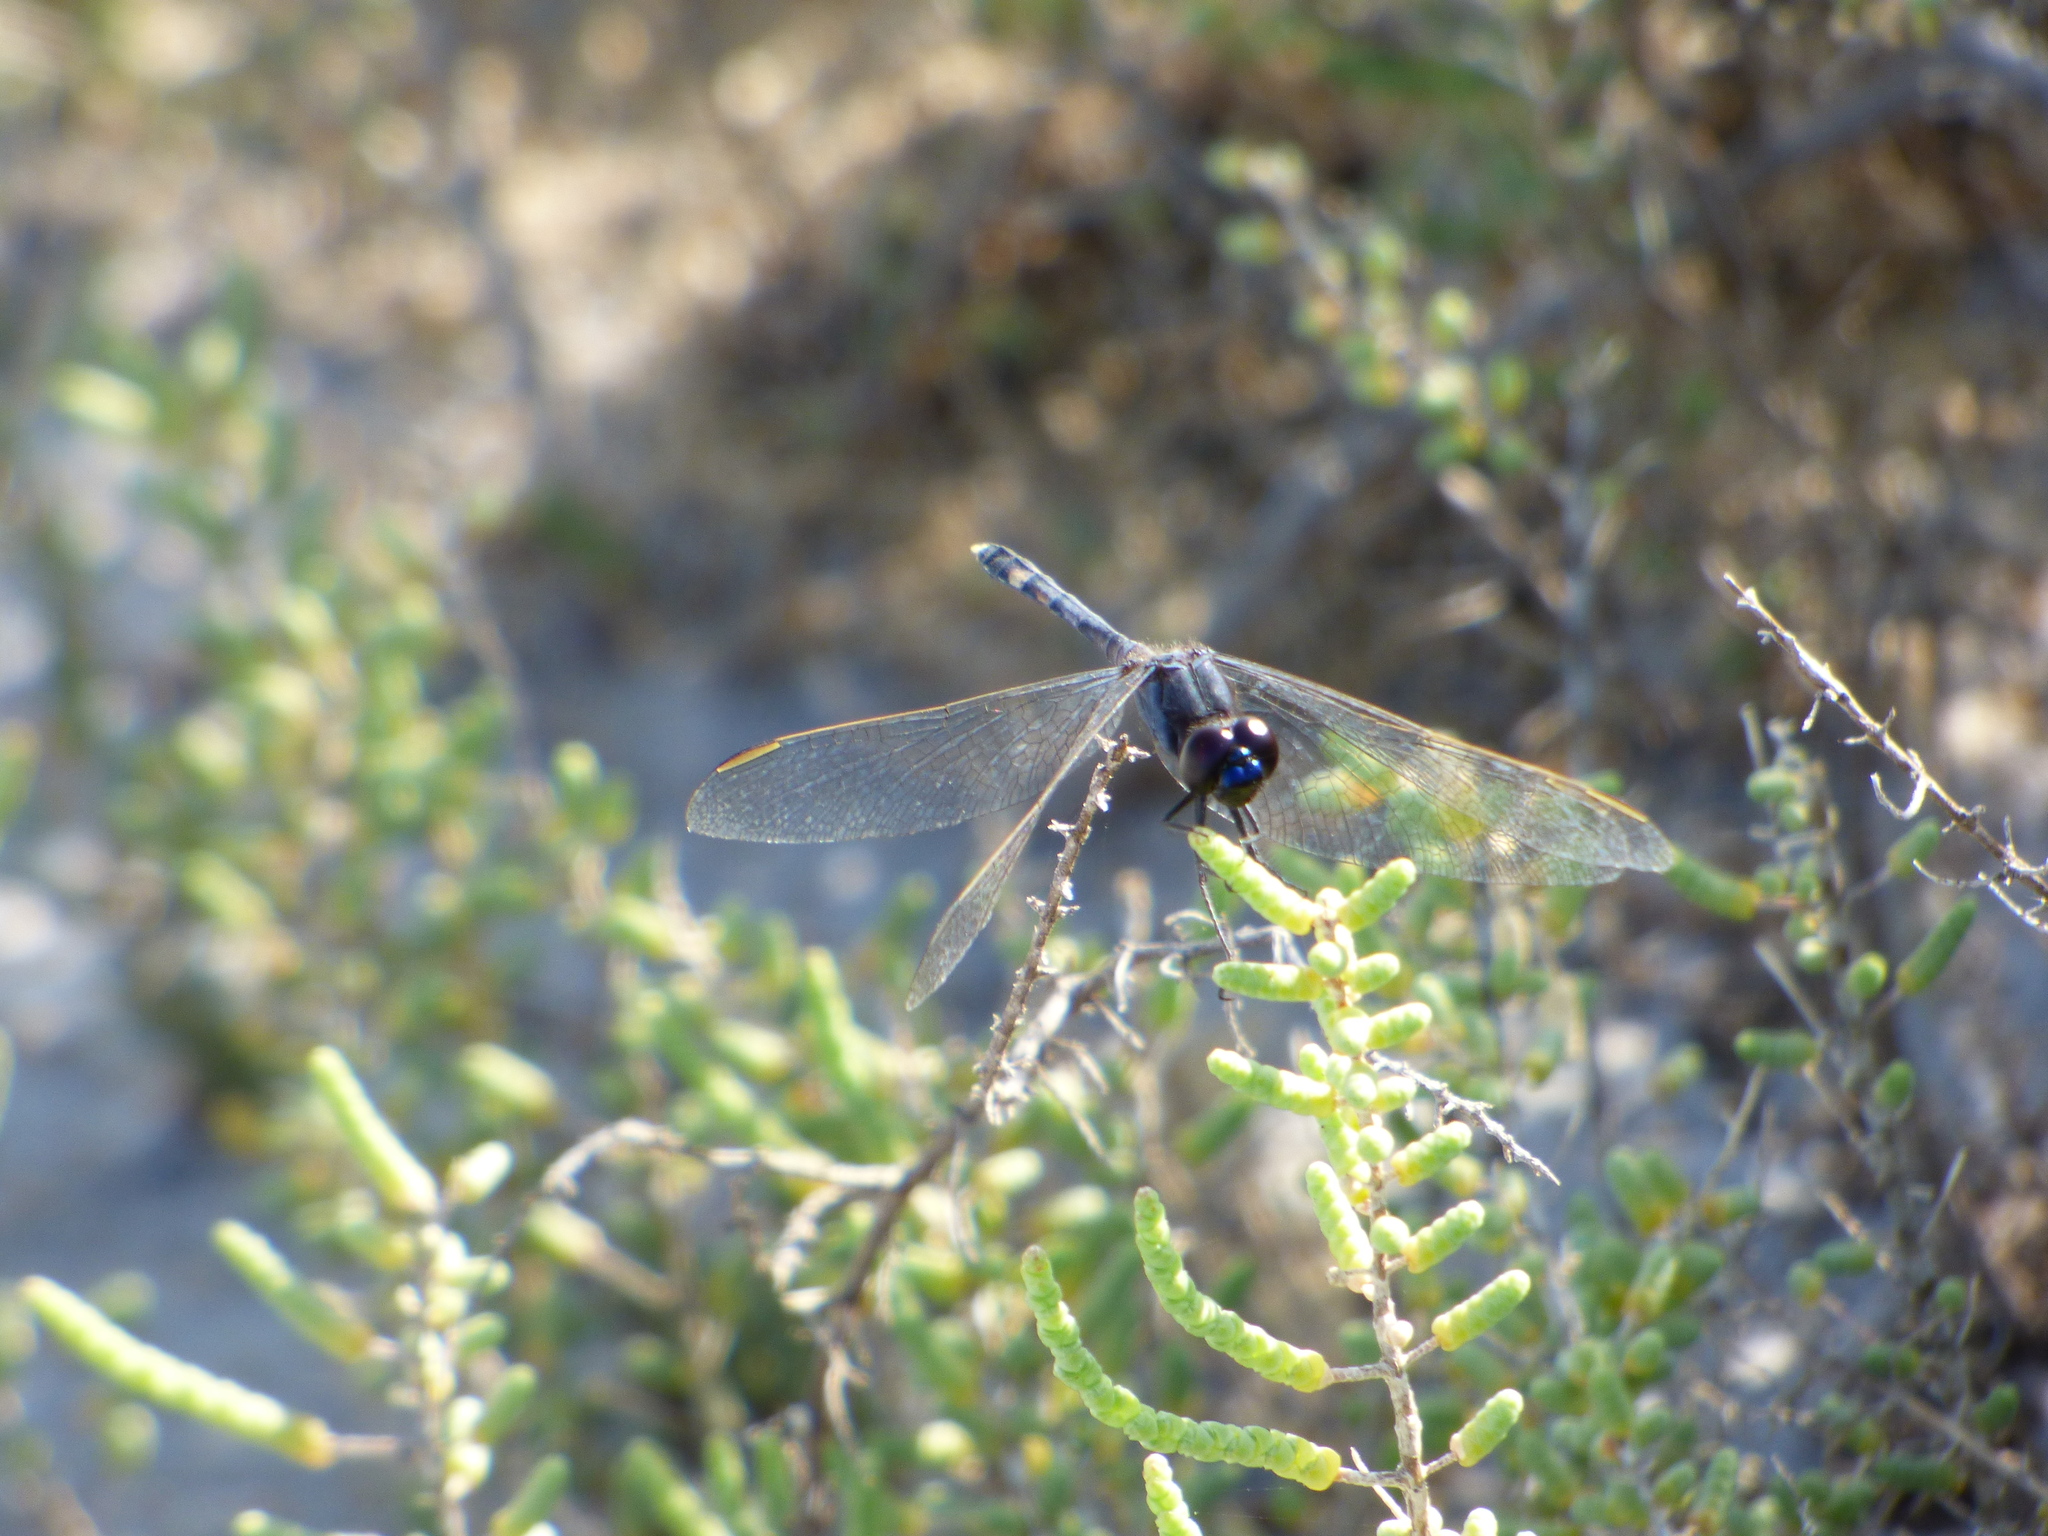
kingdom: Animalia
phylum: Arthropoda
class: Insecta
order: Odonata
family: Libellulidae
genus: Erythrodiplax
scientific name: Erythrodiplax nigricans
